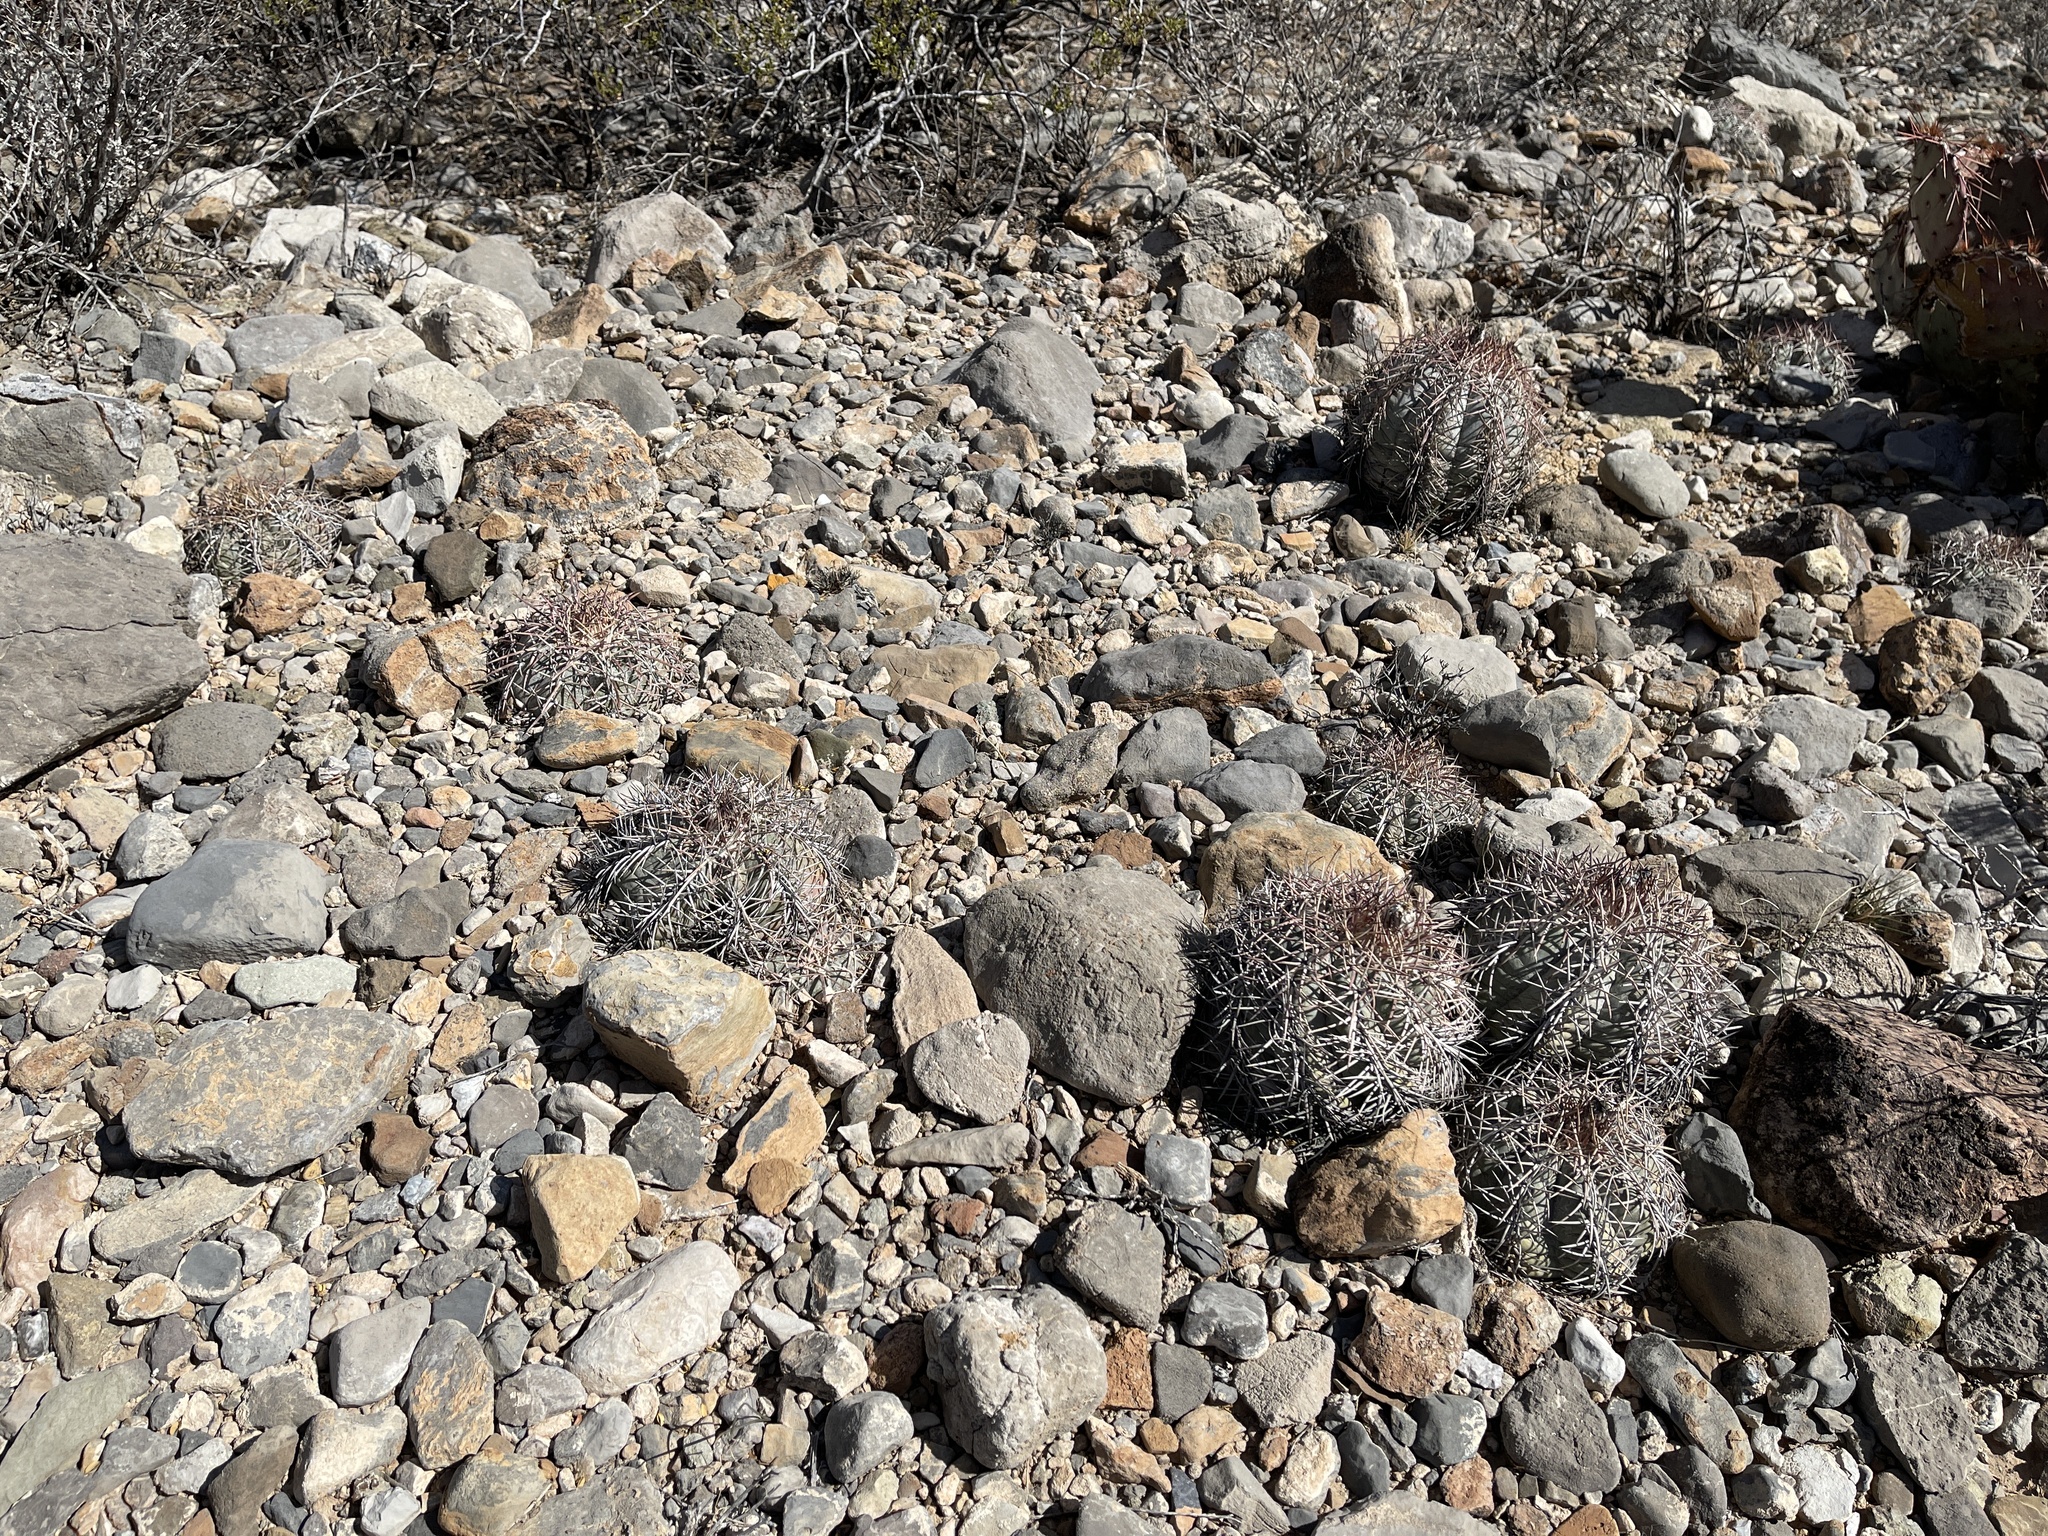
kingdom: Plantae
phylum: Tracheophyta
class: Magnoliopsida
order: Caryophyllales
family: Cactaceae
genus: Echinocactus
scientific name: Echinocactus horizonthalonius
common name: Devilshead
